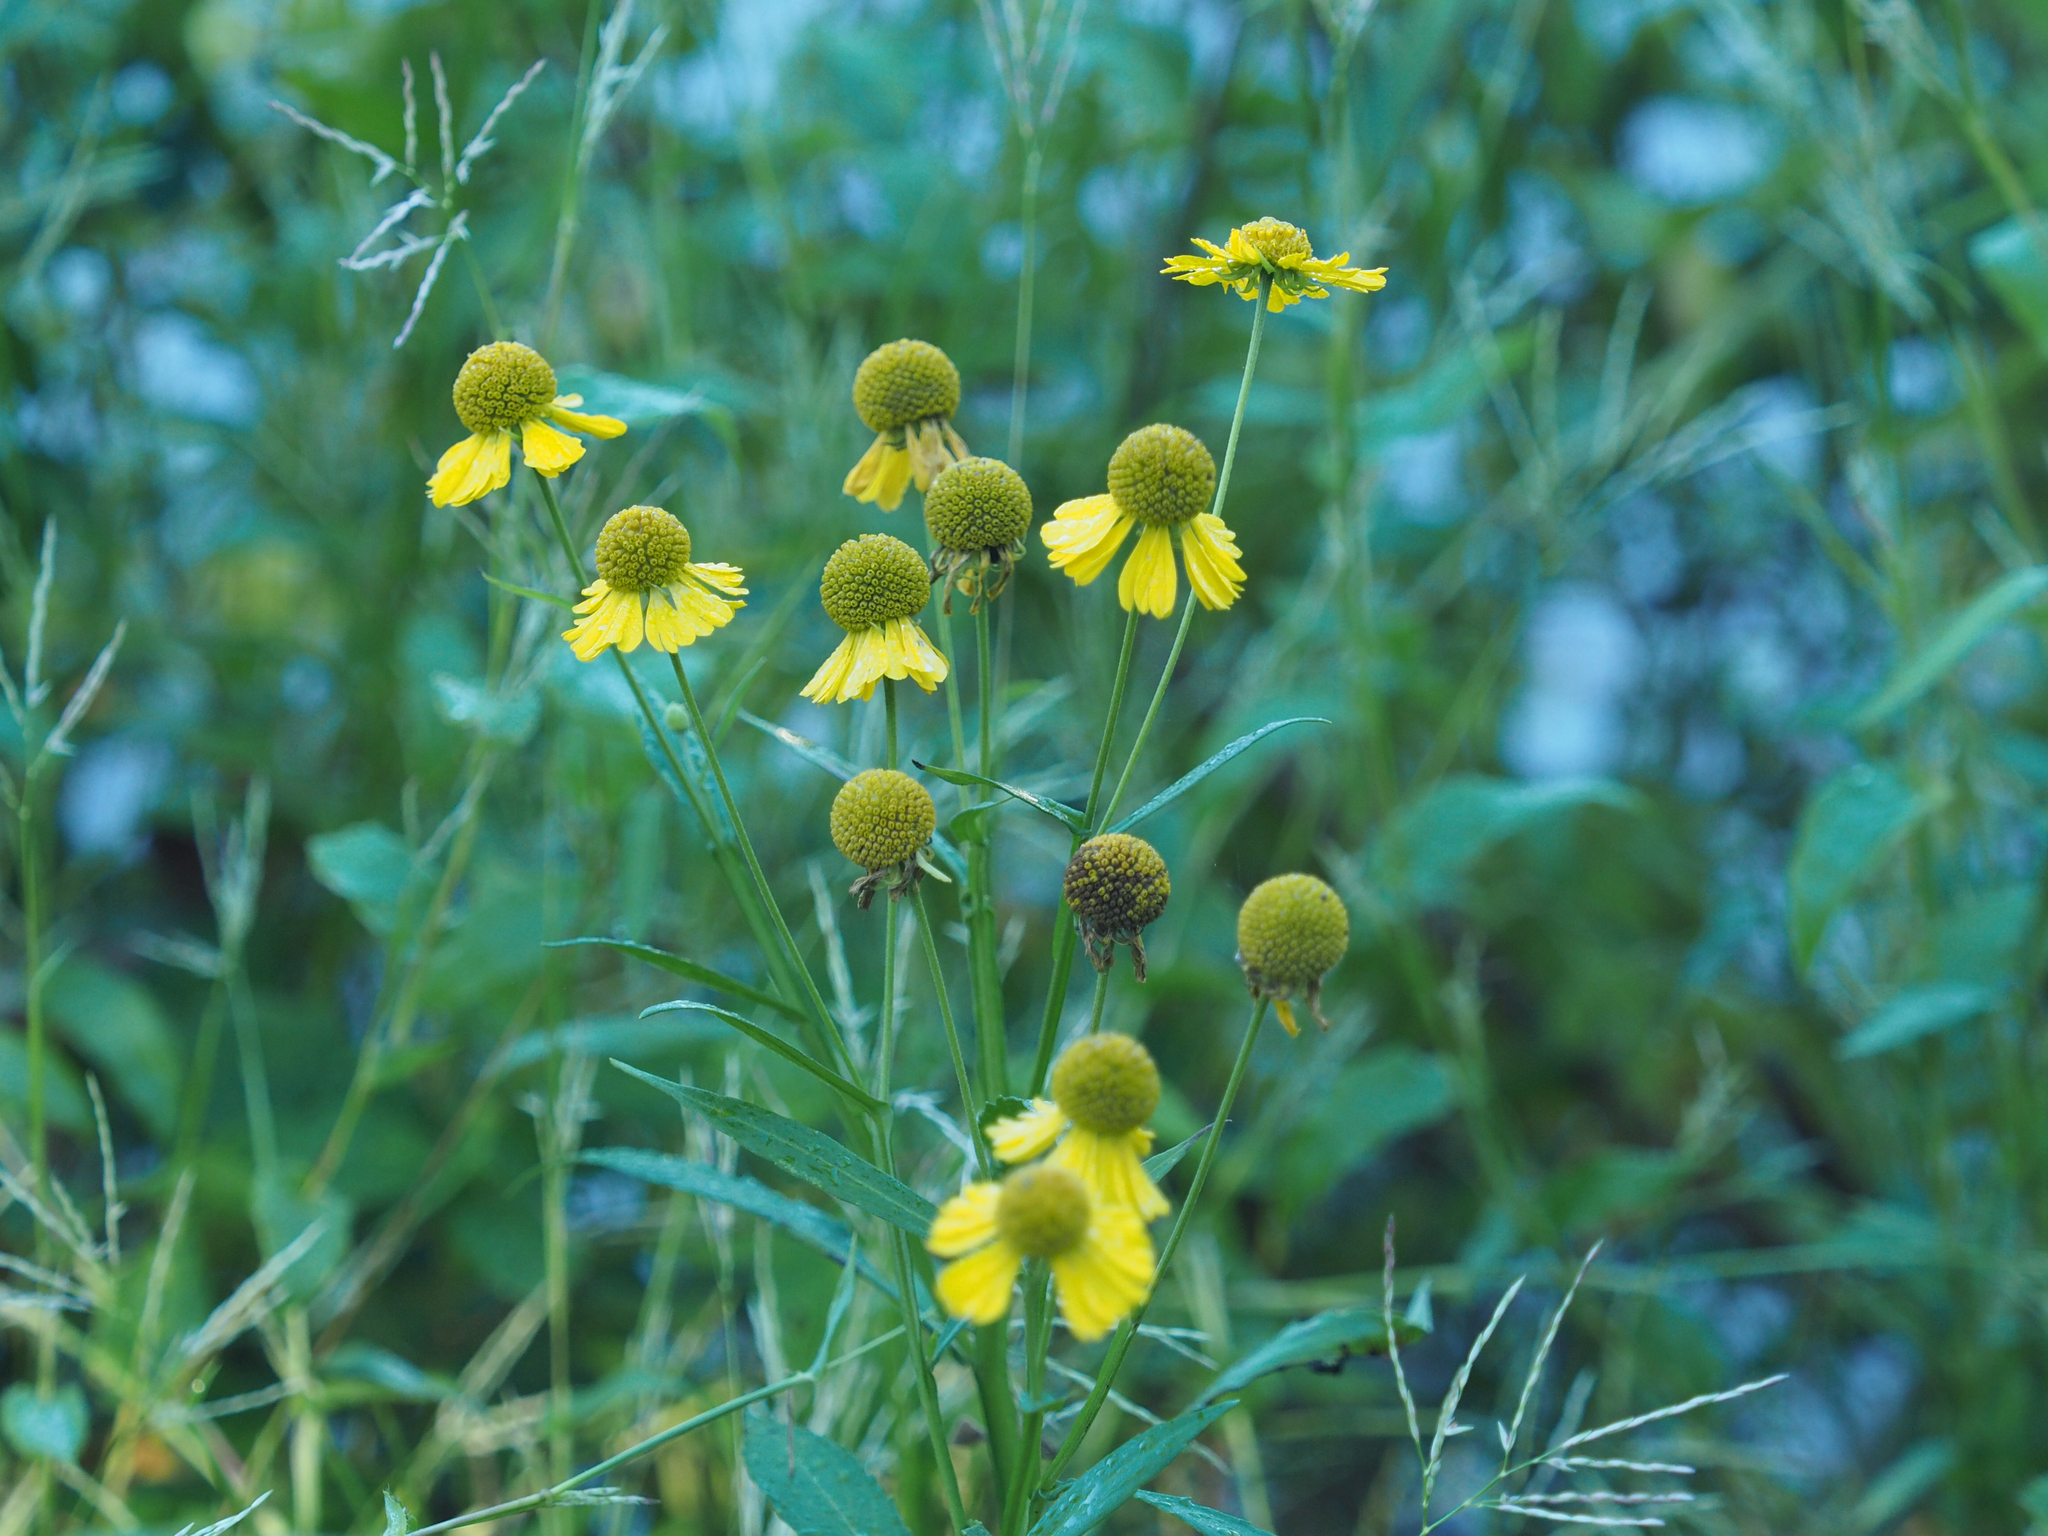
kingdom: Plantae
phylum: Tracheophyta
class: Magnoliopsida
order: Asterales
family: Asteraceae
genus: Helenium
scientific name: Helenium autumnale
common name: Sneezeweed
